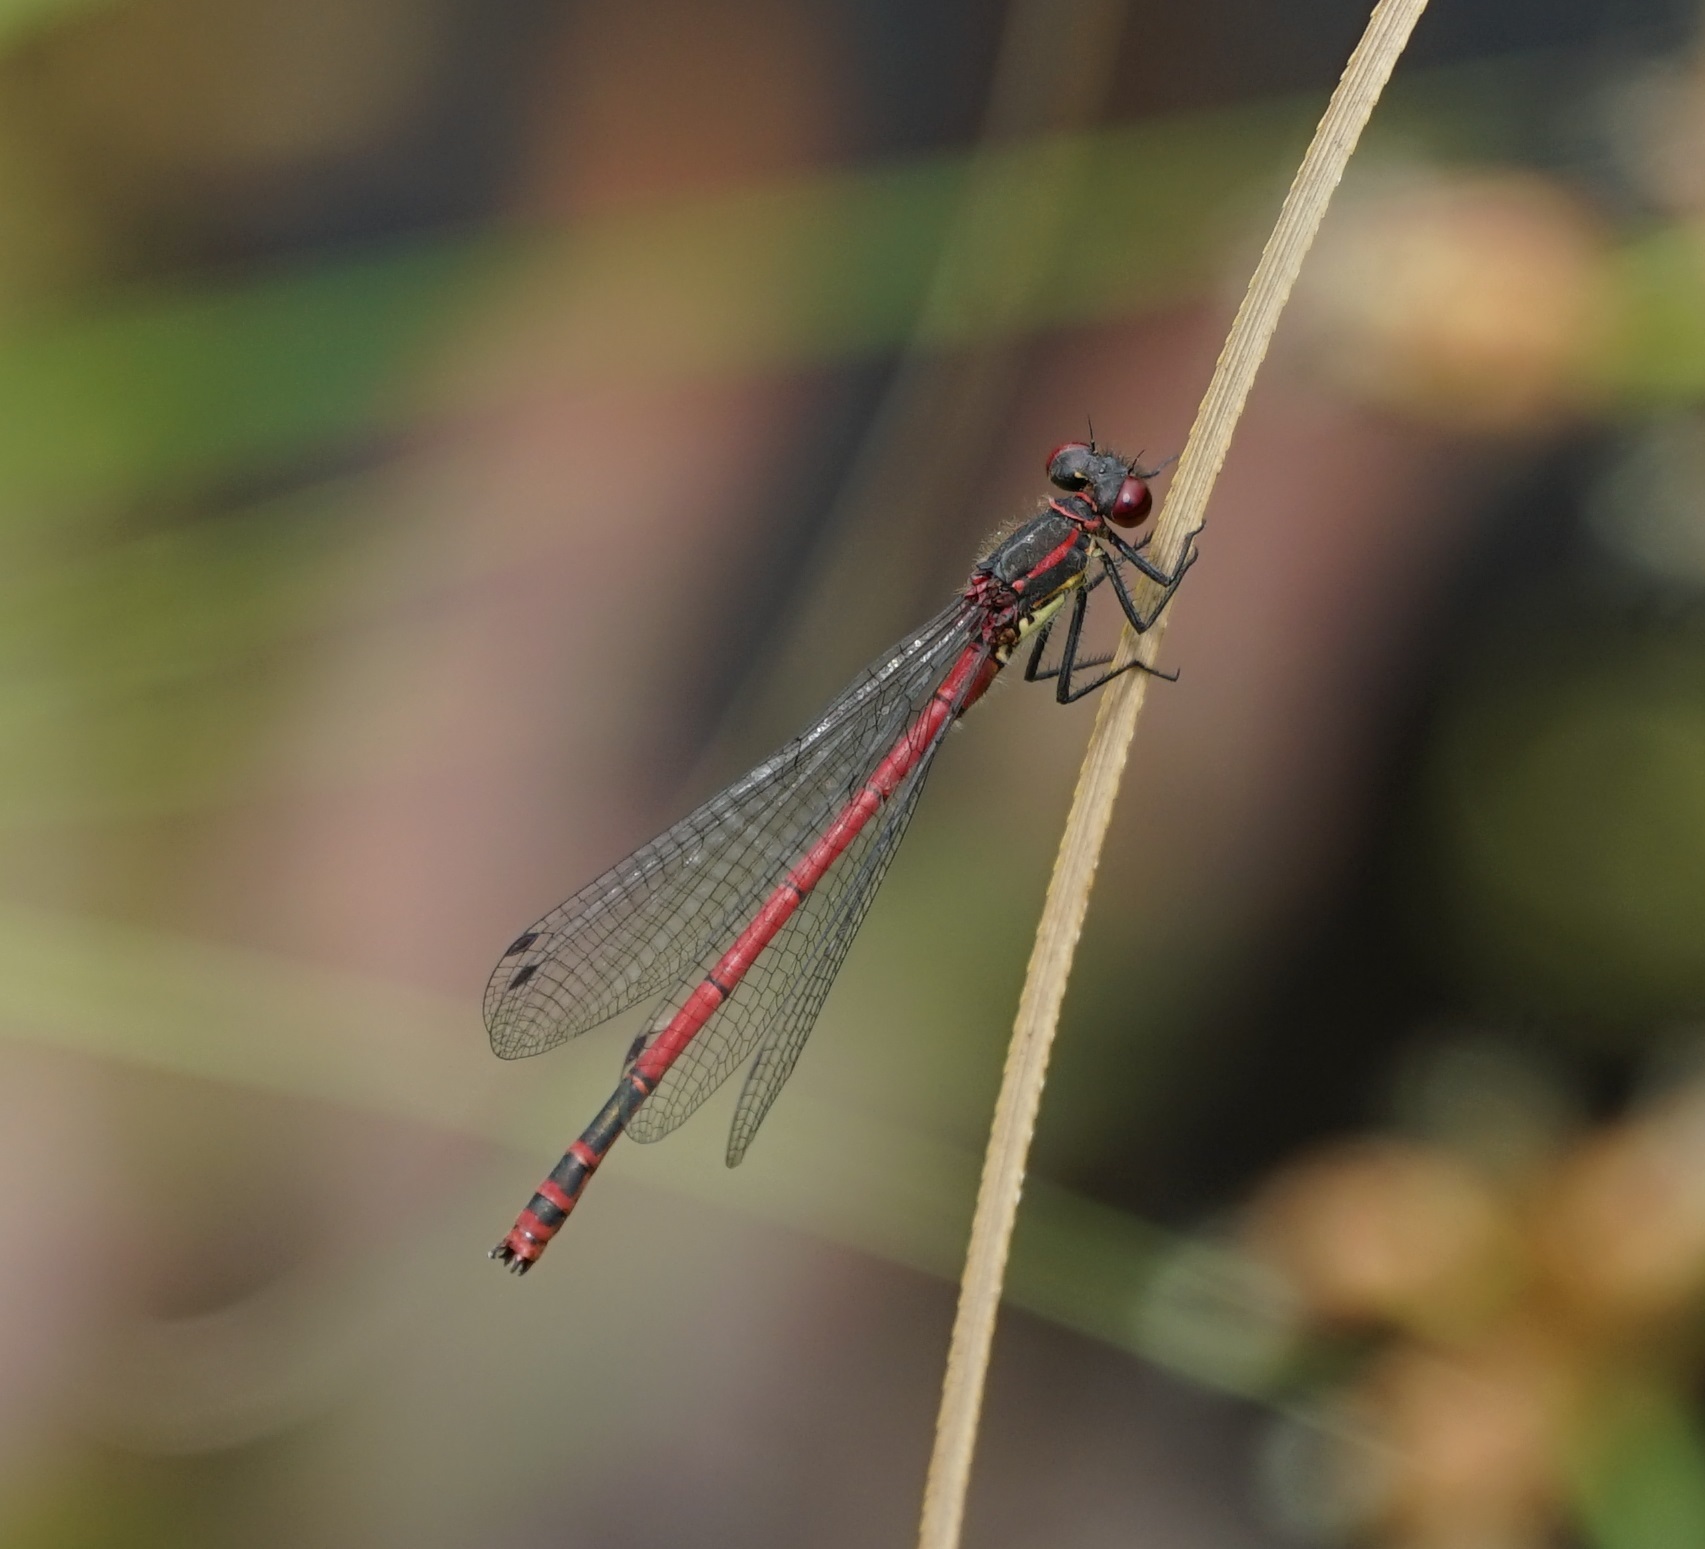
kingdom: Animalia
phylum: Arthropoda
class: Insecta
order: Odonata
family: Coenagrionidae
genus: Pyrrhosoma
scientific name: Pyrrhosoma nymphula
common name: Large red damsel
